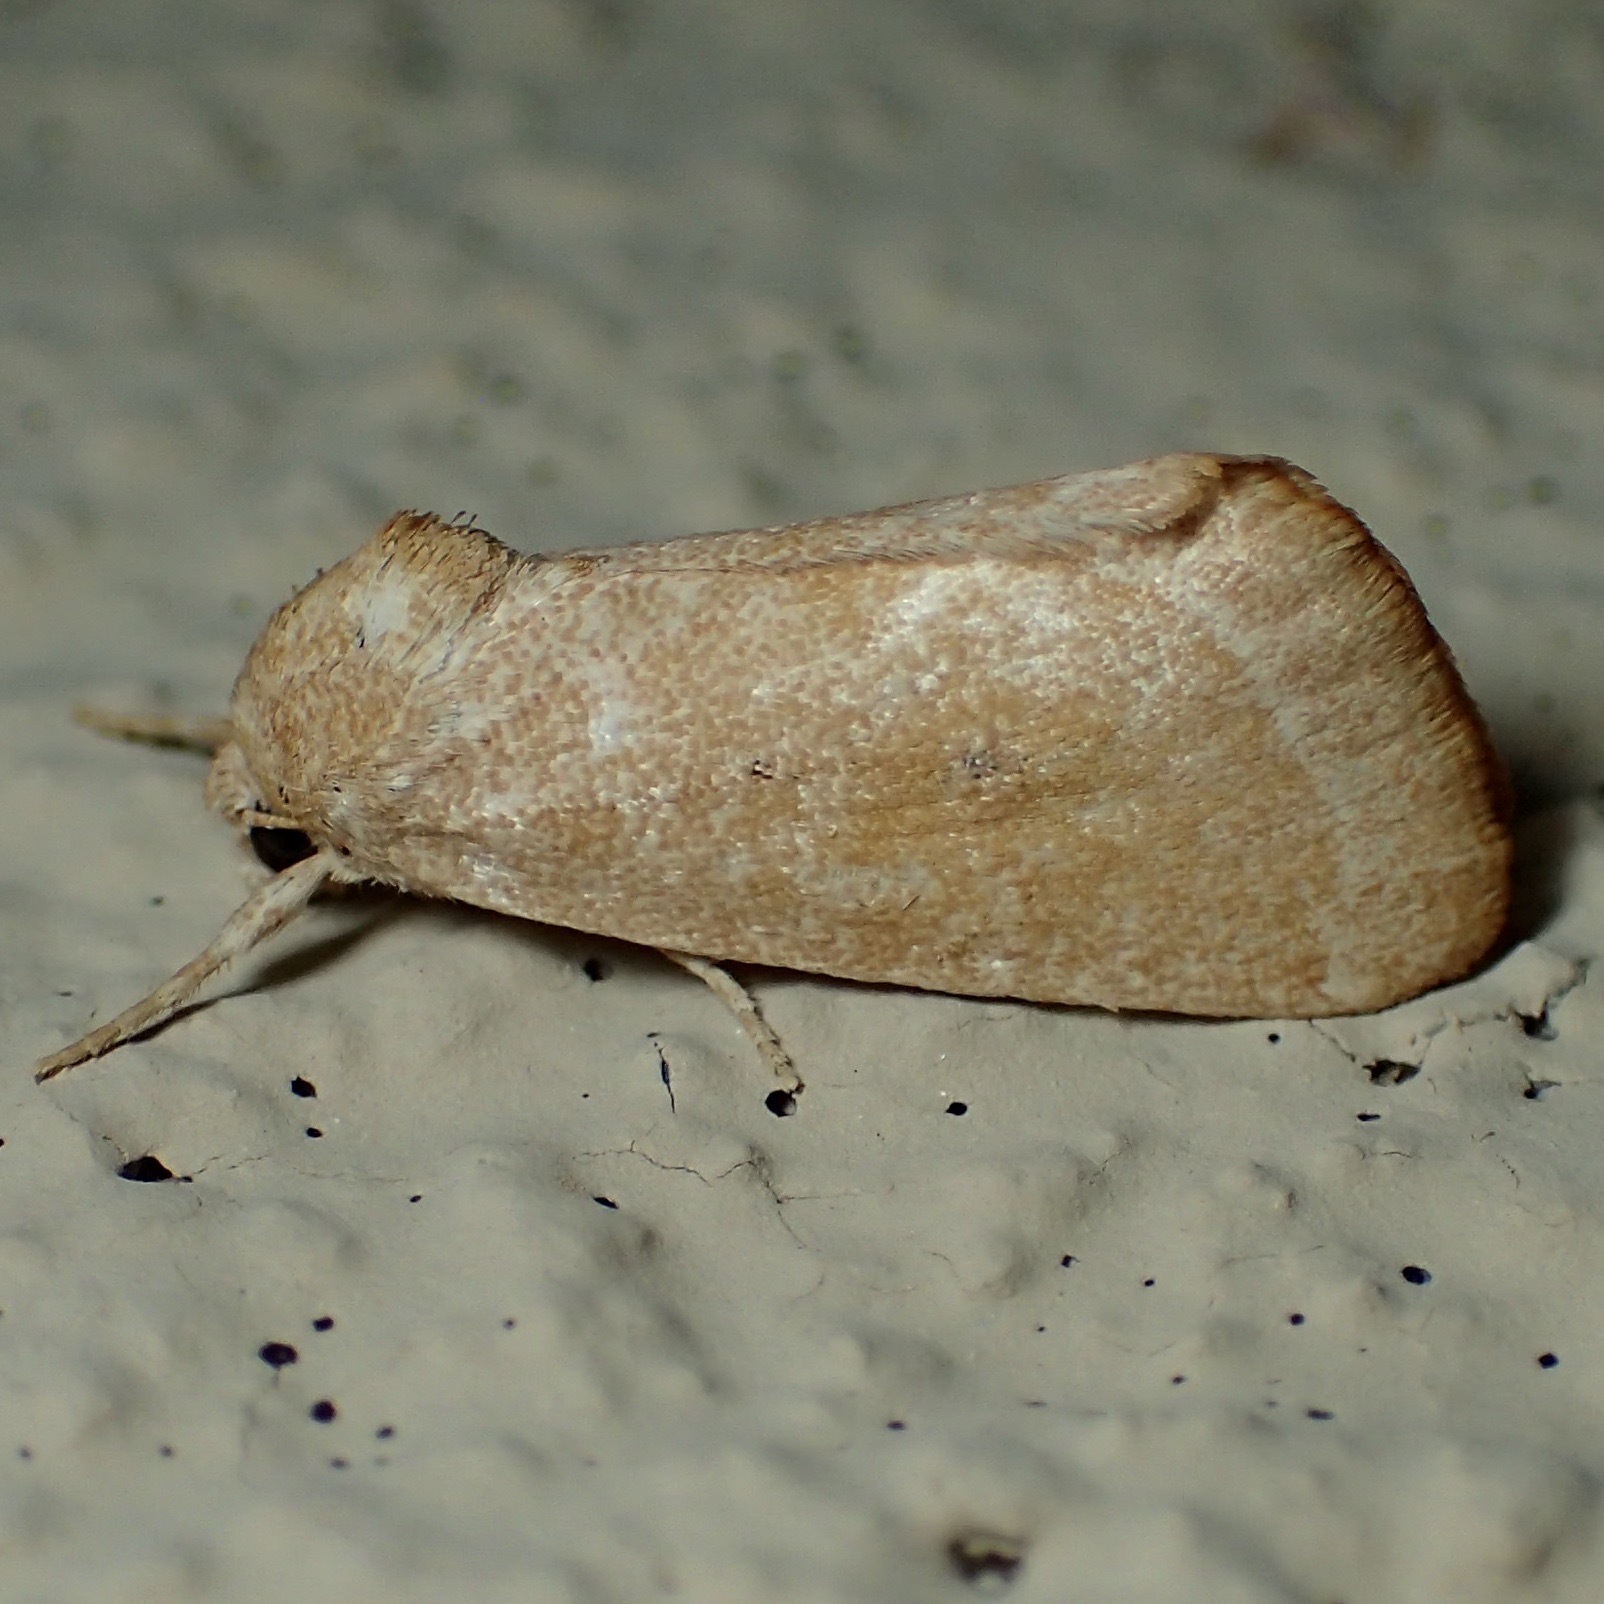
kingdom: Animalia
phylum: Arthropoda
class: Insecta
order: Lepidoptera
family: Noctuidae
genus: Trichocosmia
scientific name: Trichocosmia inornata
